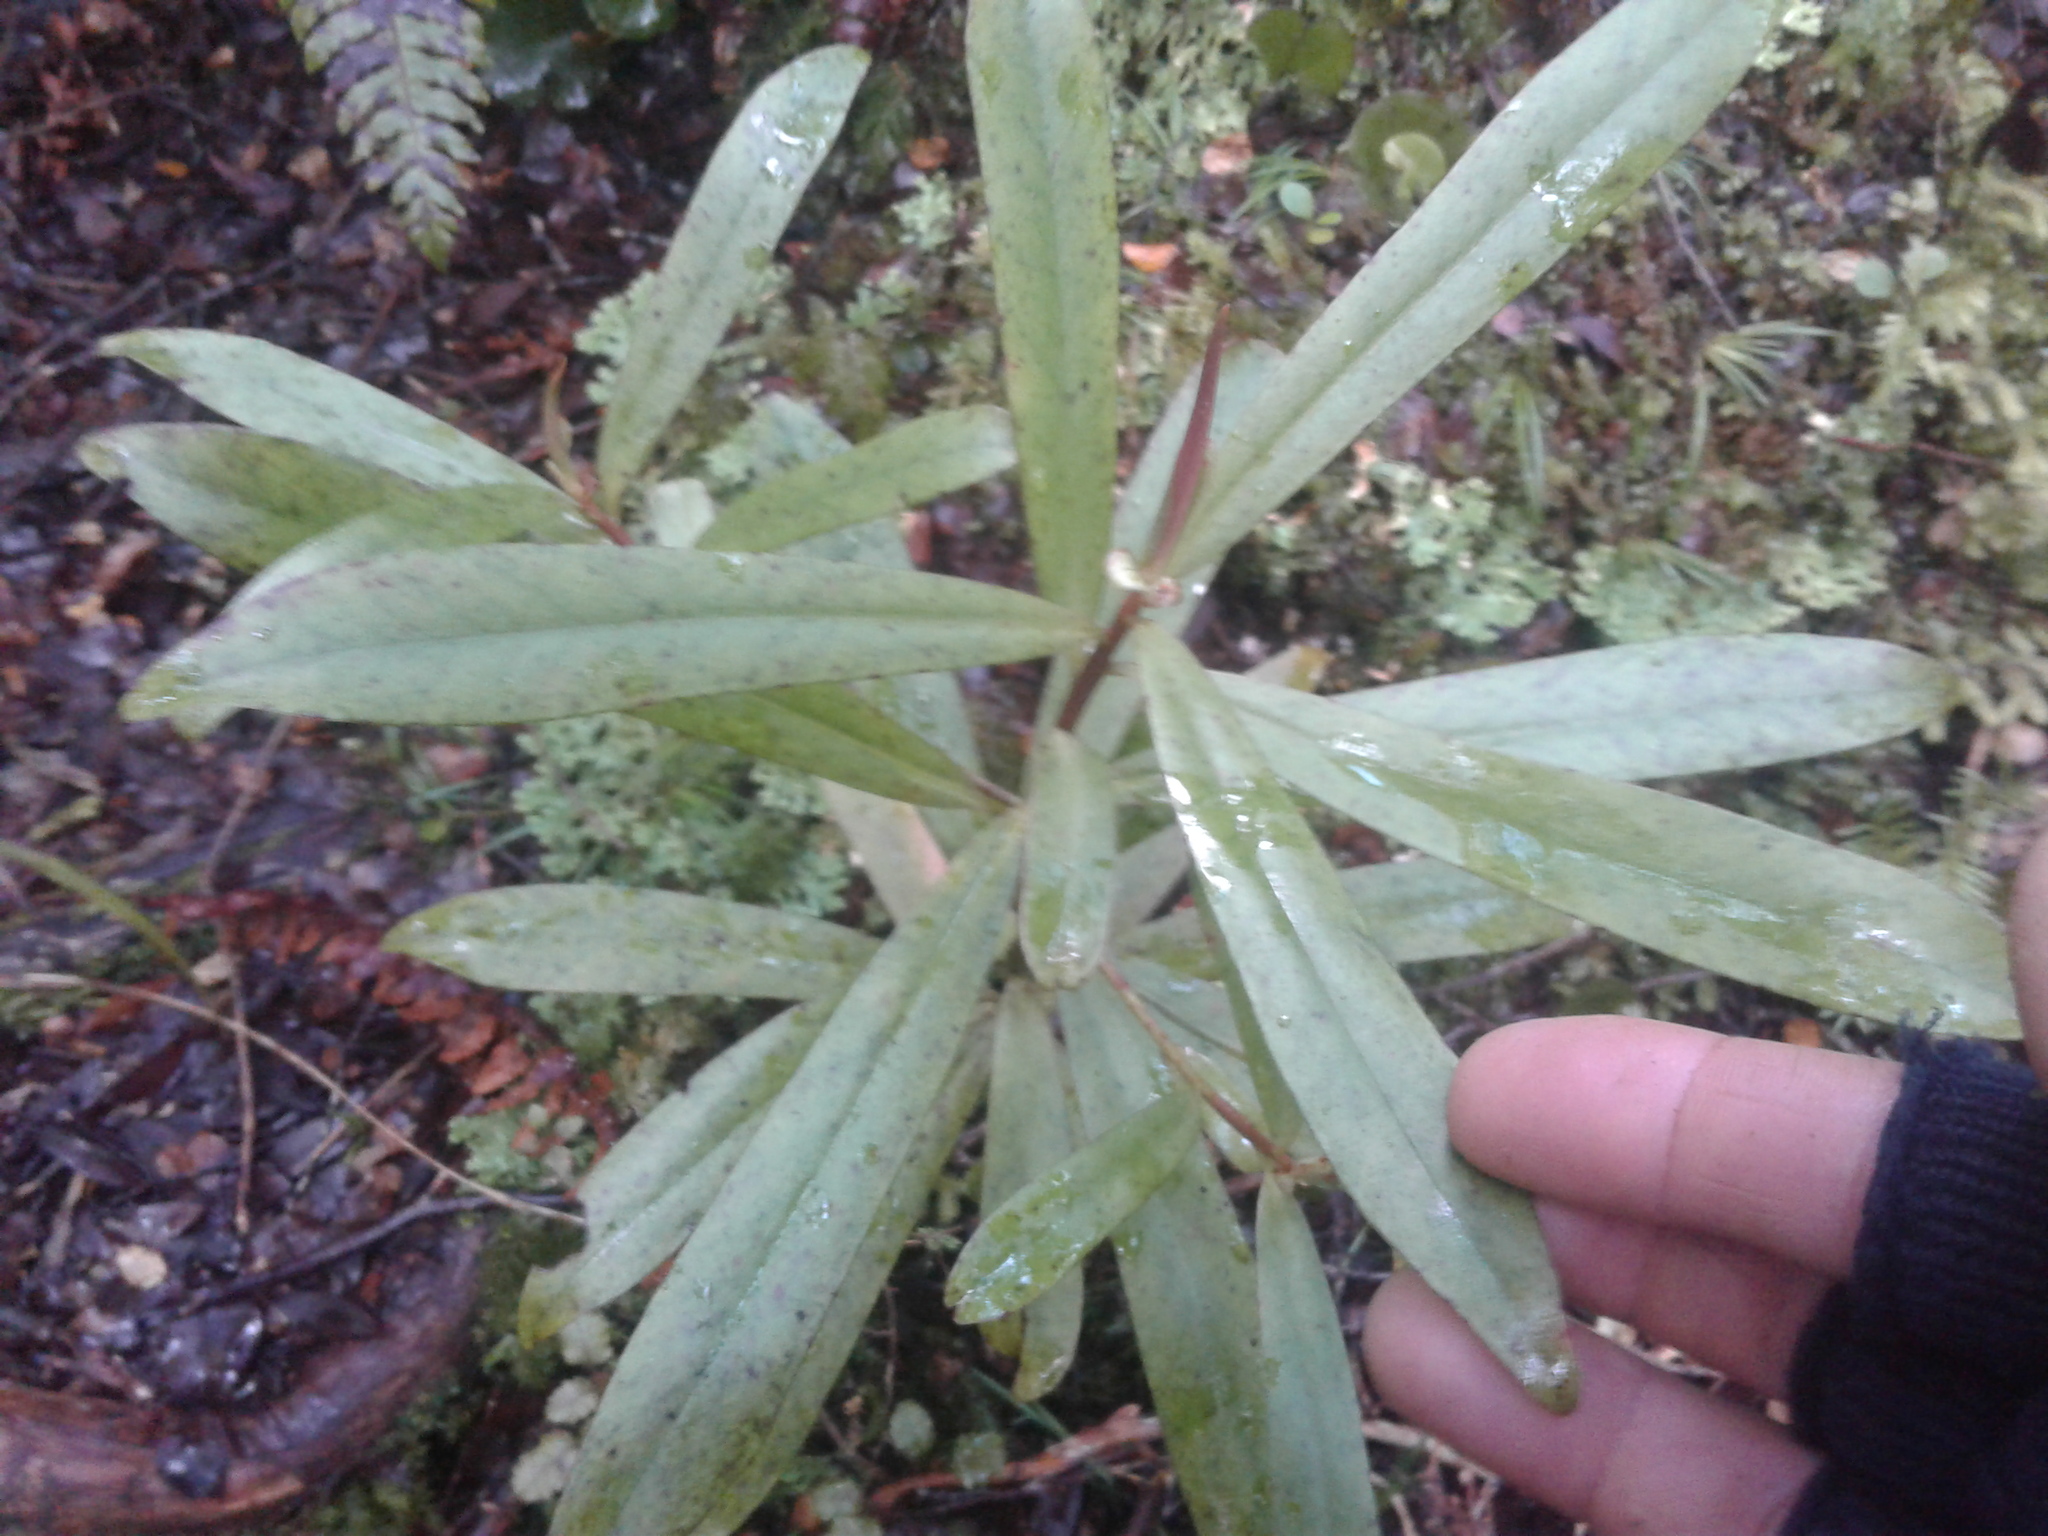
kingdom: Plantae
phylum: Tracheophyta
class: Magnoliopsida
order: Ericales
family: Primulaceae
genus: Myrsine
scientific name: Myrsine salicina
